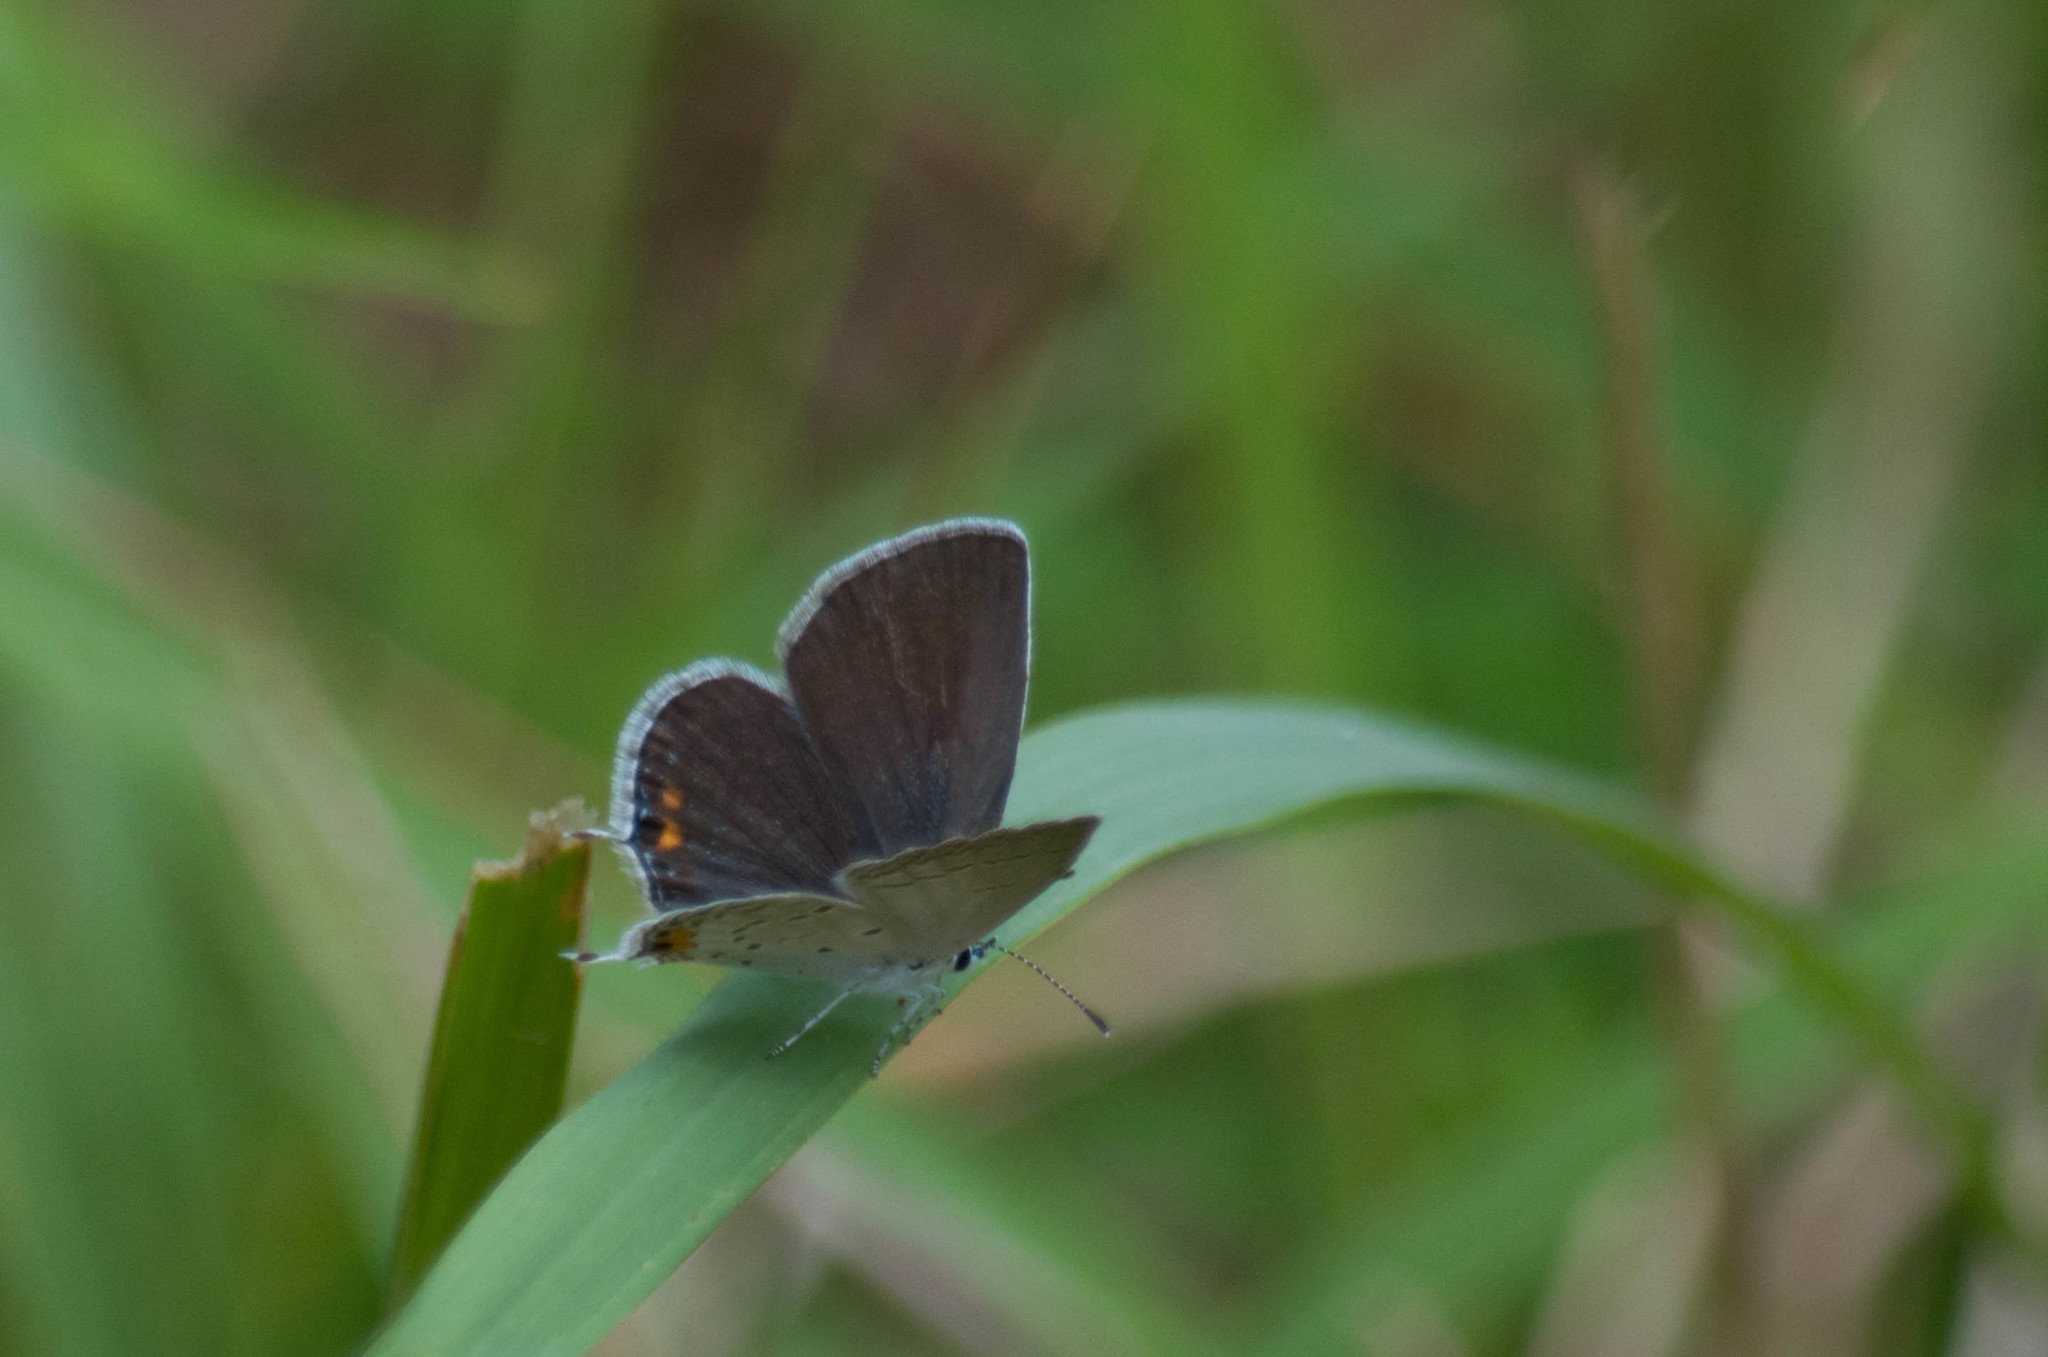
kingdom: Animalia
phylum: Arthropoda
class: Insecta
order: Lepidoptera
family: Lycaenidae
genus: Elkalyce
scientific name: Elkalyce comyntas
